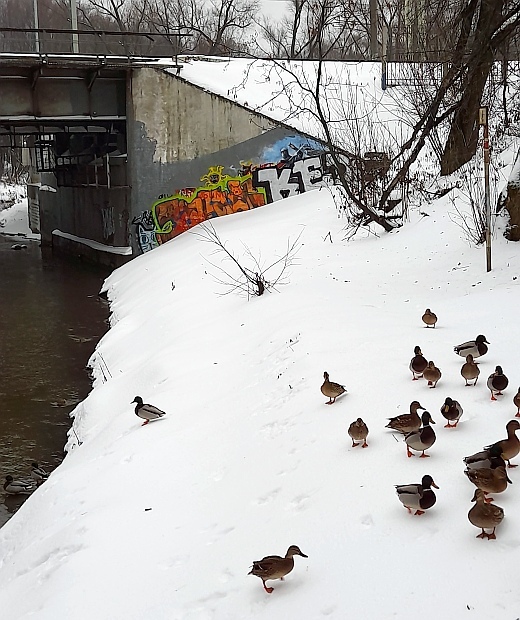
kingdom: Animalia
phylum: Chordata
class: Aves
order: Anseriformes
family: Anatidae
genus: Anas
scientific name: Anas platyrhynchos
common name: Mallard
